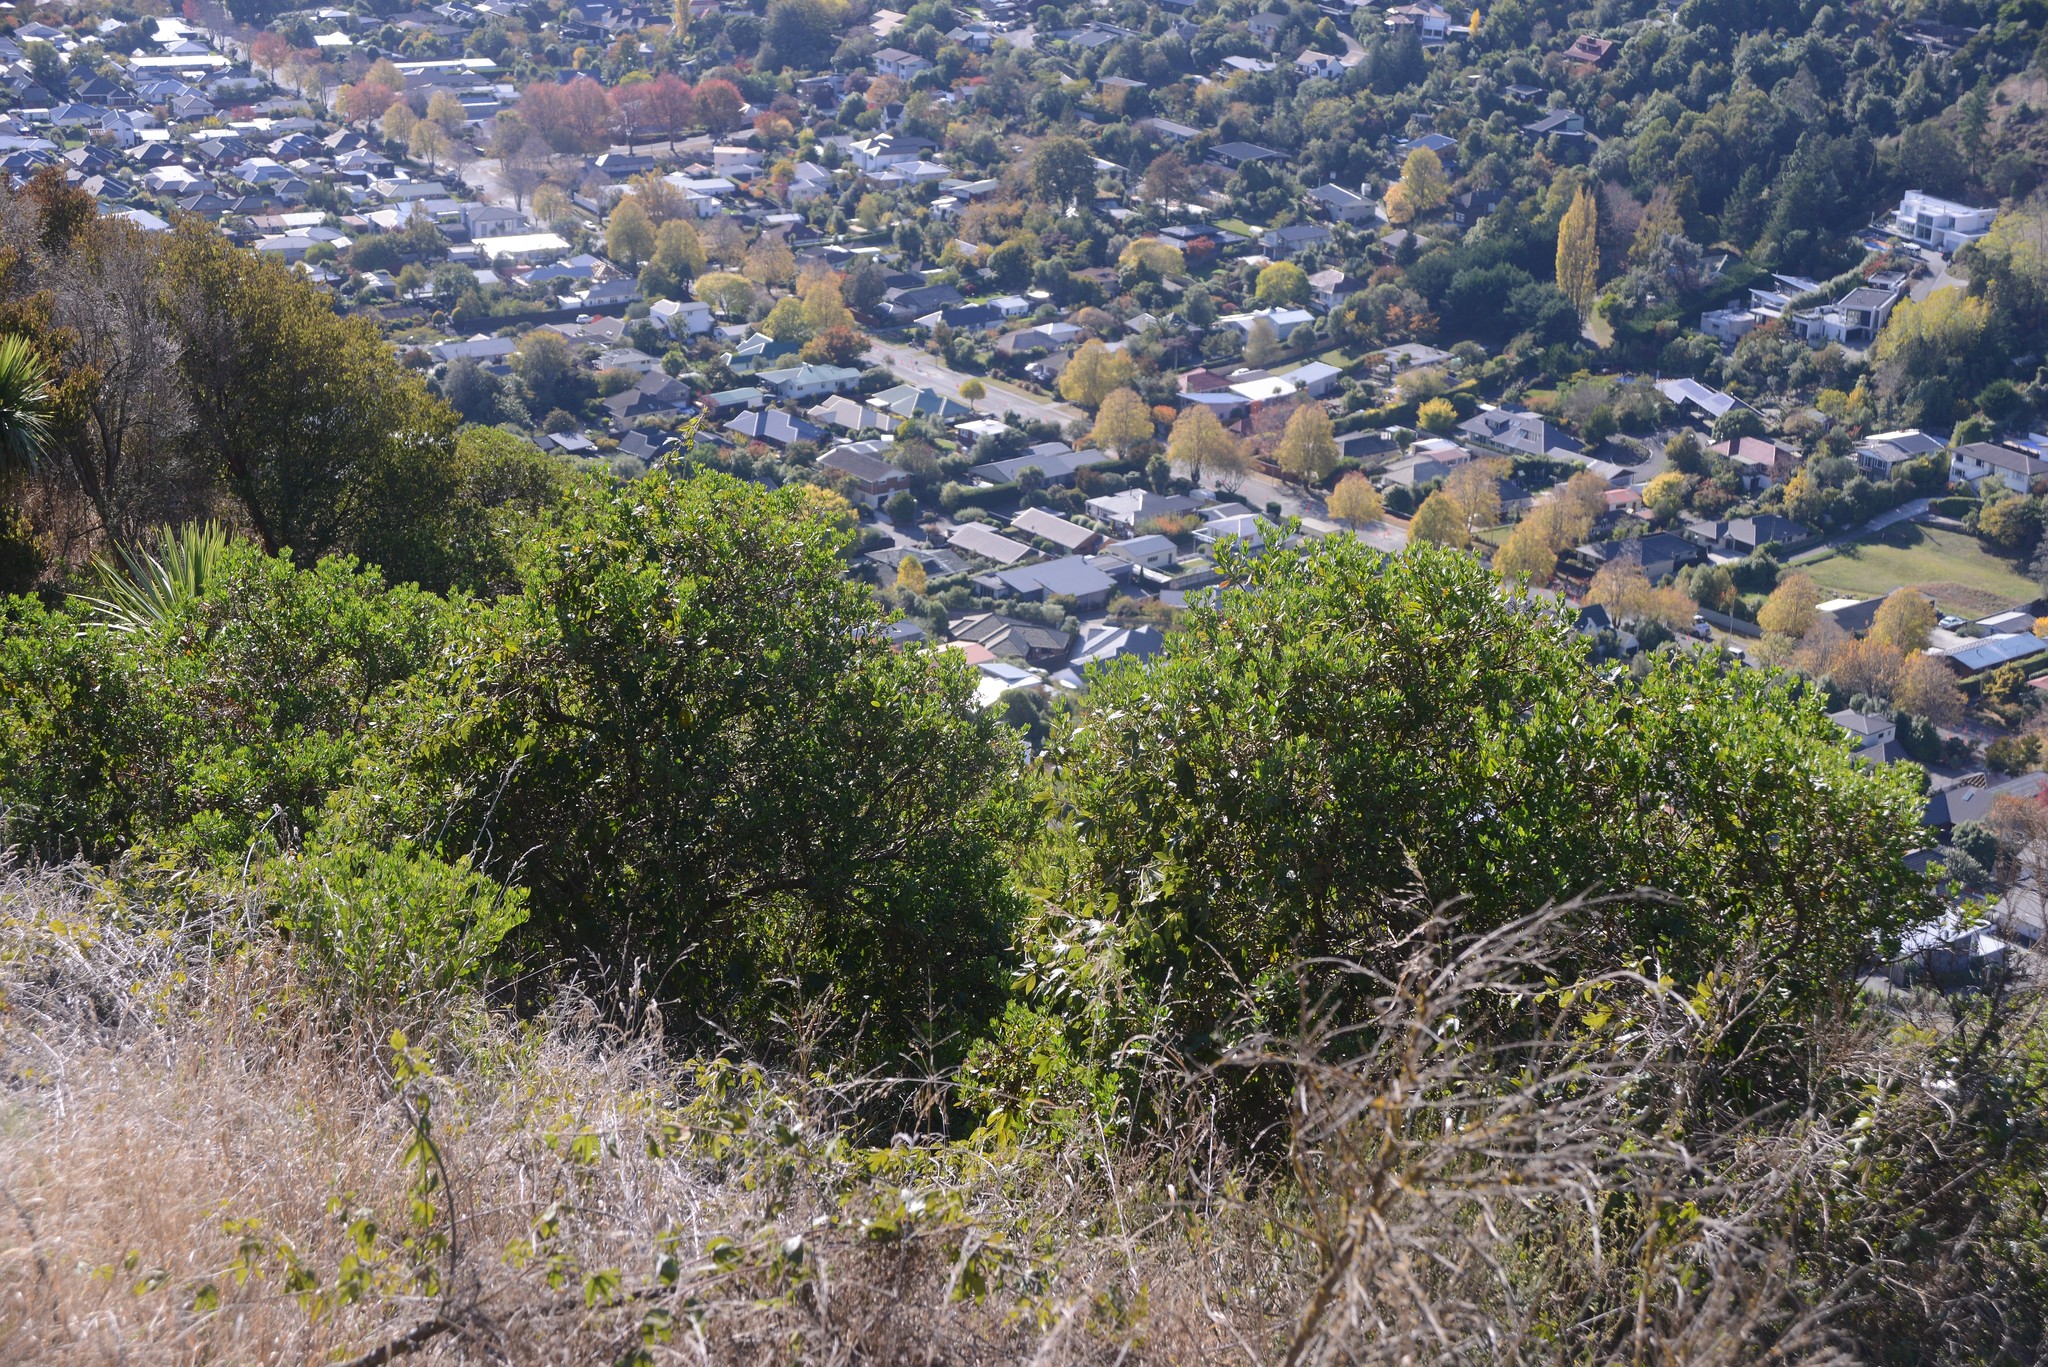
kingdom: Plantae
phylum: Tracheophyta
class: Magnoliopsida
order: Asterales
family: Asteraceae
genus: Osteospermum
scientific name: Osteospermum moniliferum
